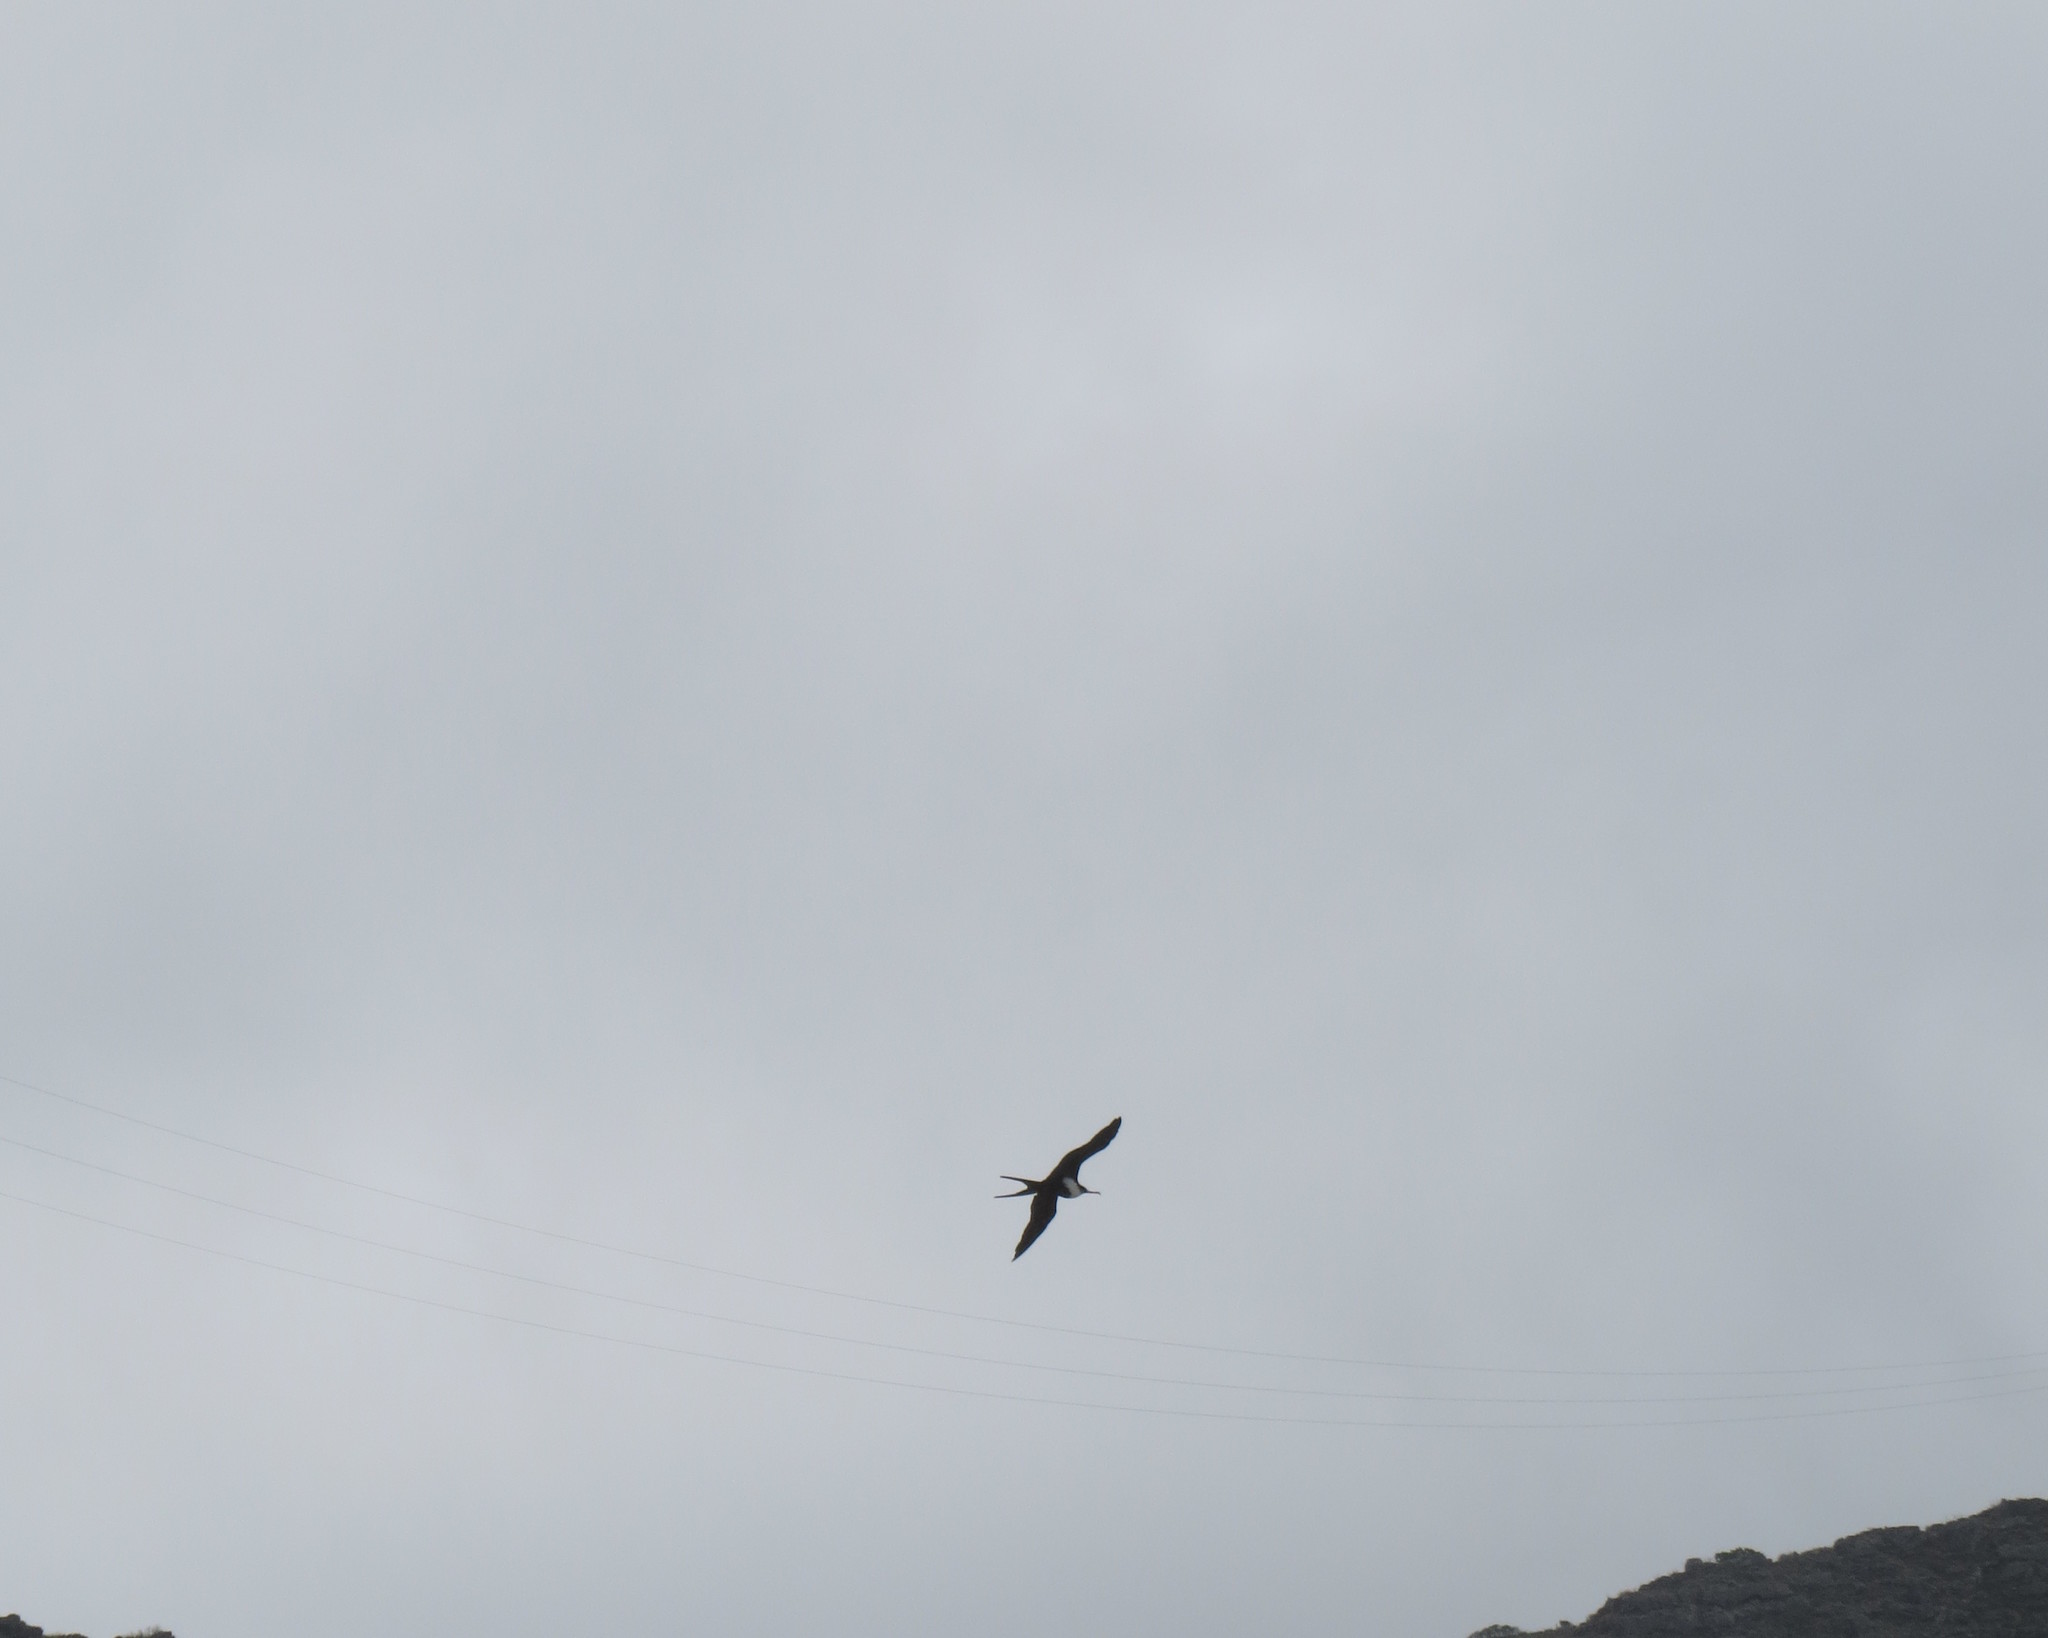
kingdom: Animalia
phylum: Chordata
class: Aves
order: Suliformes
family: Fregatidae
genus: Fregata
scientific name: Fregata minor
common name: Great frigatebird
